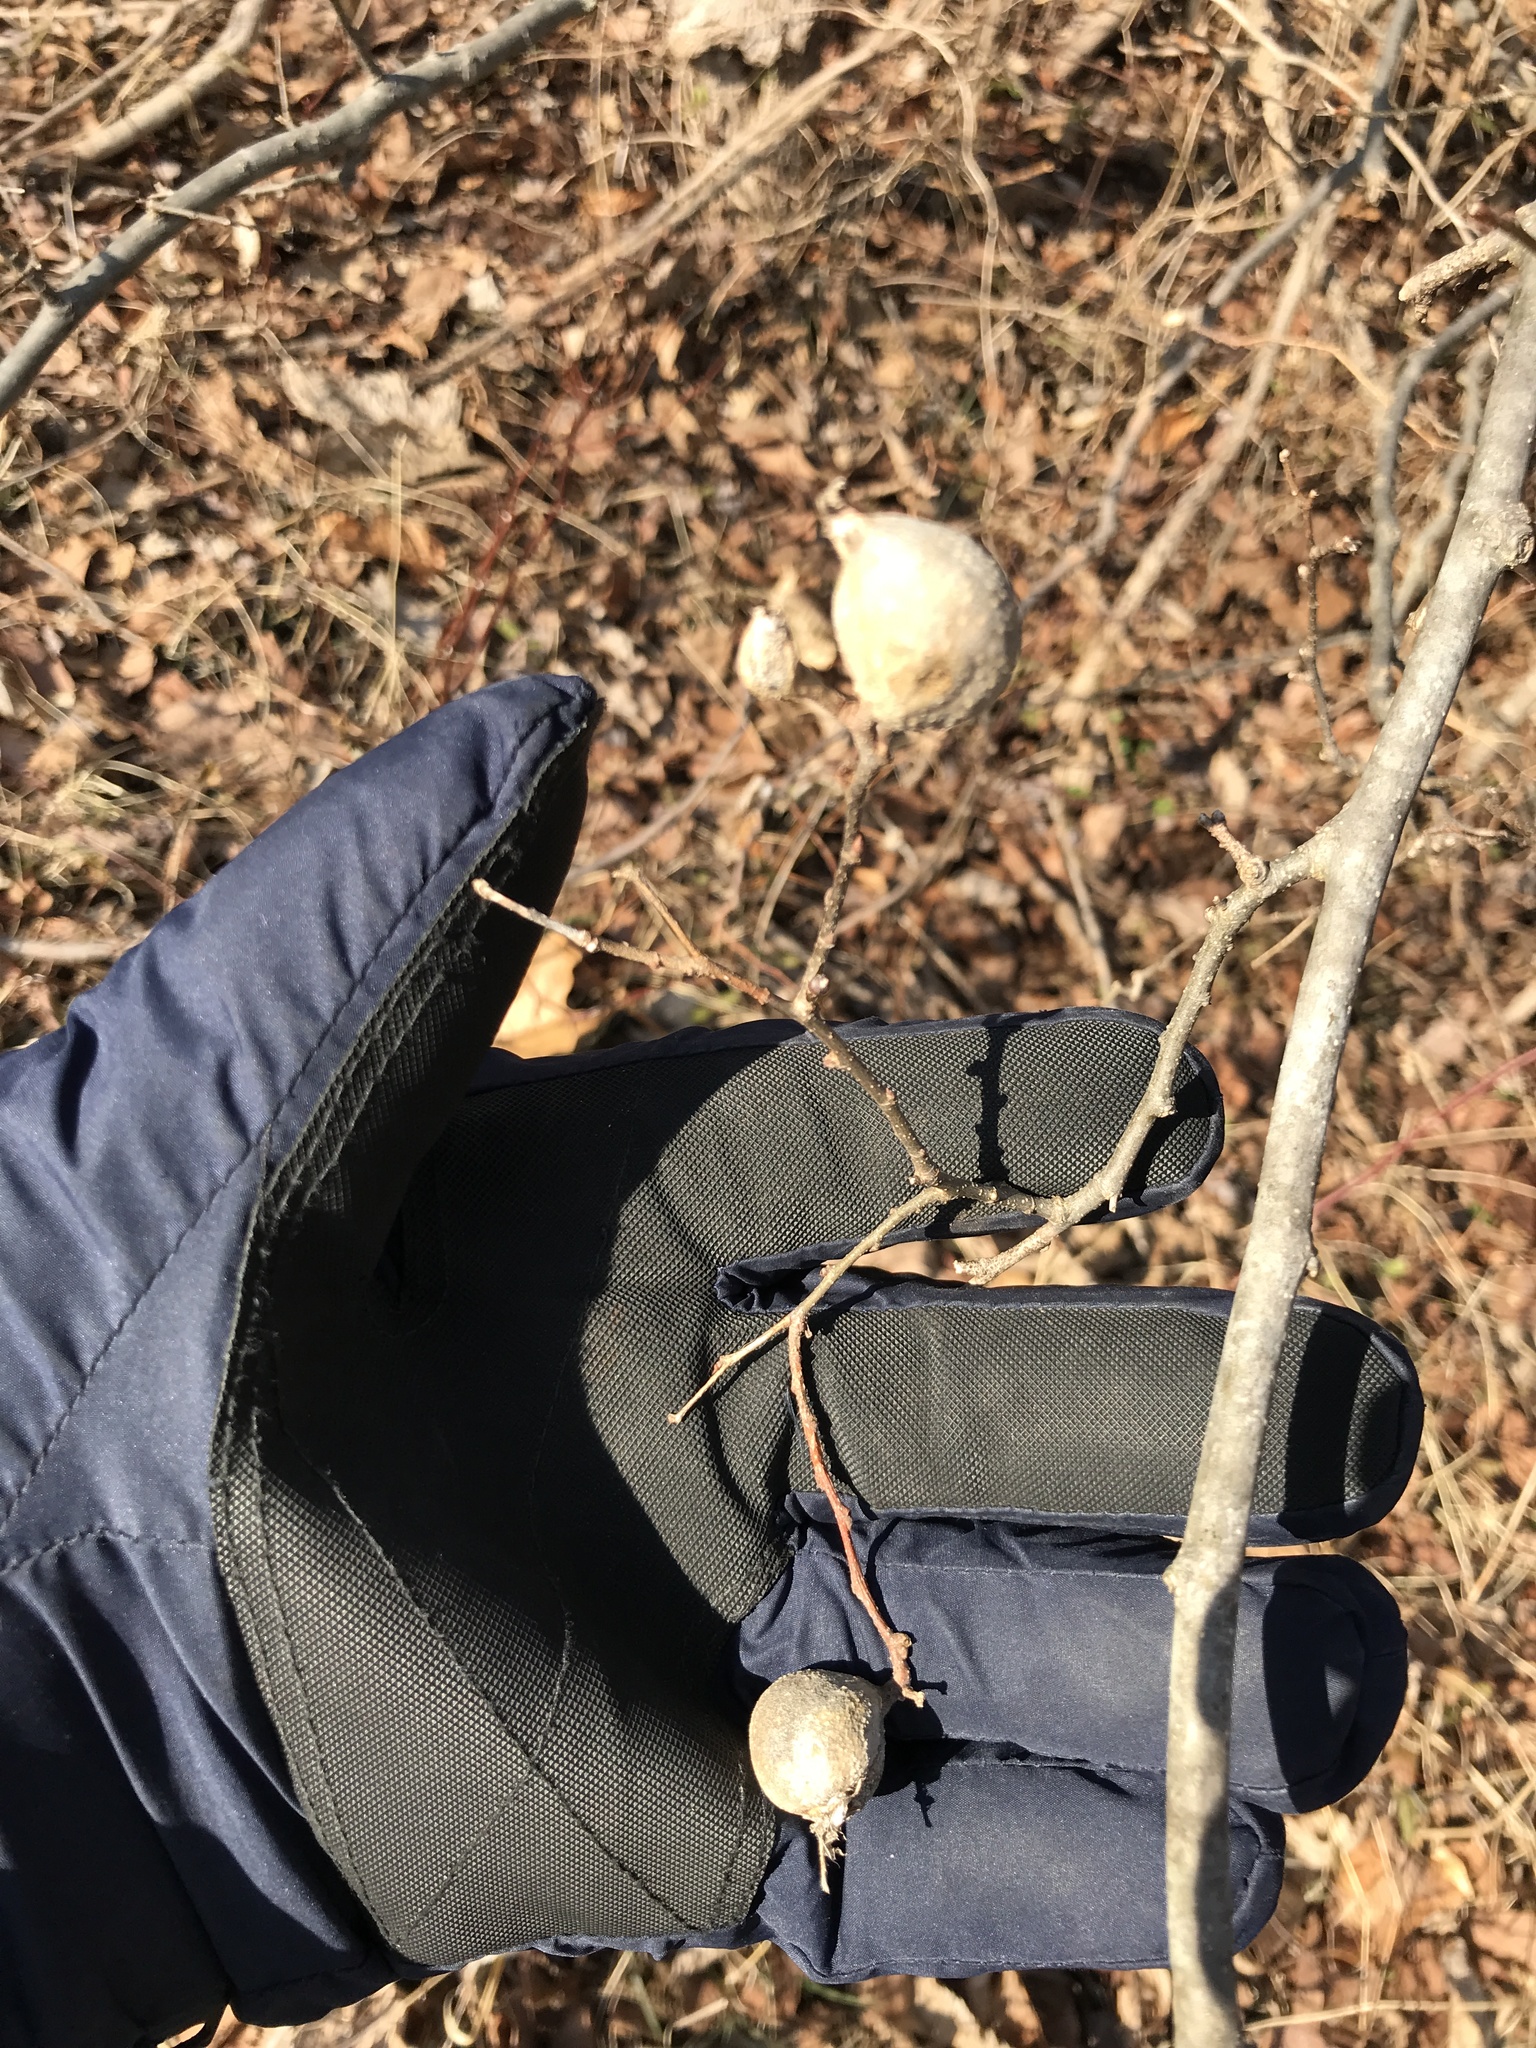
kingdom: Animalia
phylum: Arthropoda
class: Insecta
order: Hemiptera
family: Aphalaridae
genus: Pachypsylla
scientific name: Pachypsylla venusta
